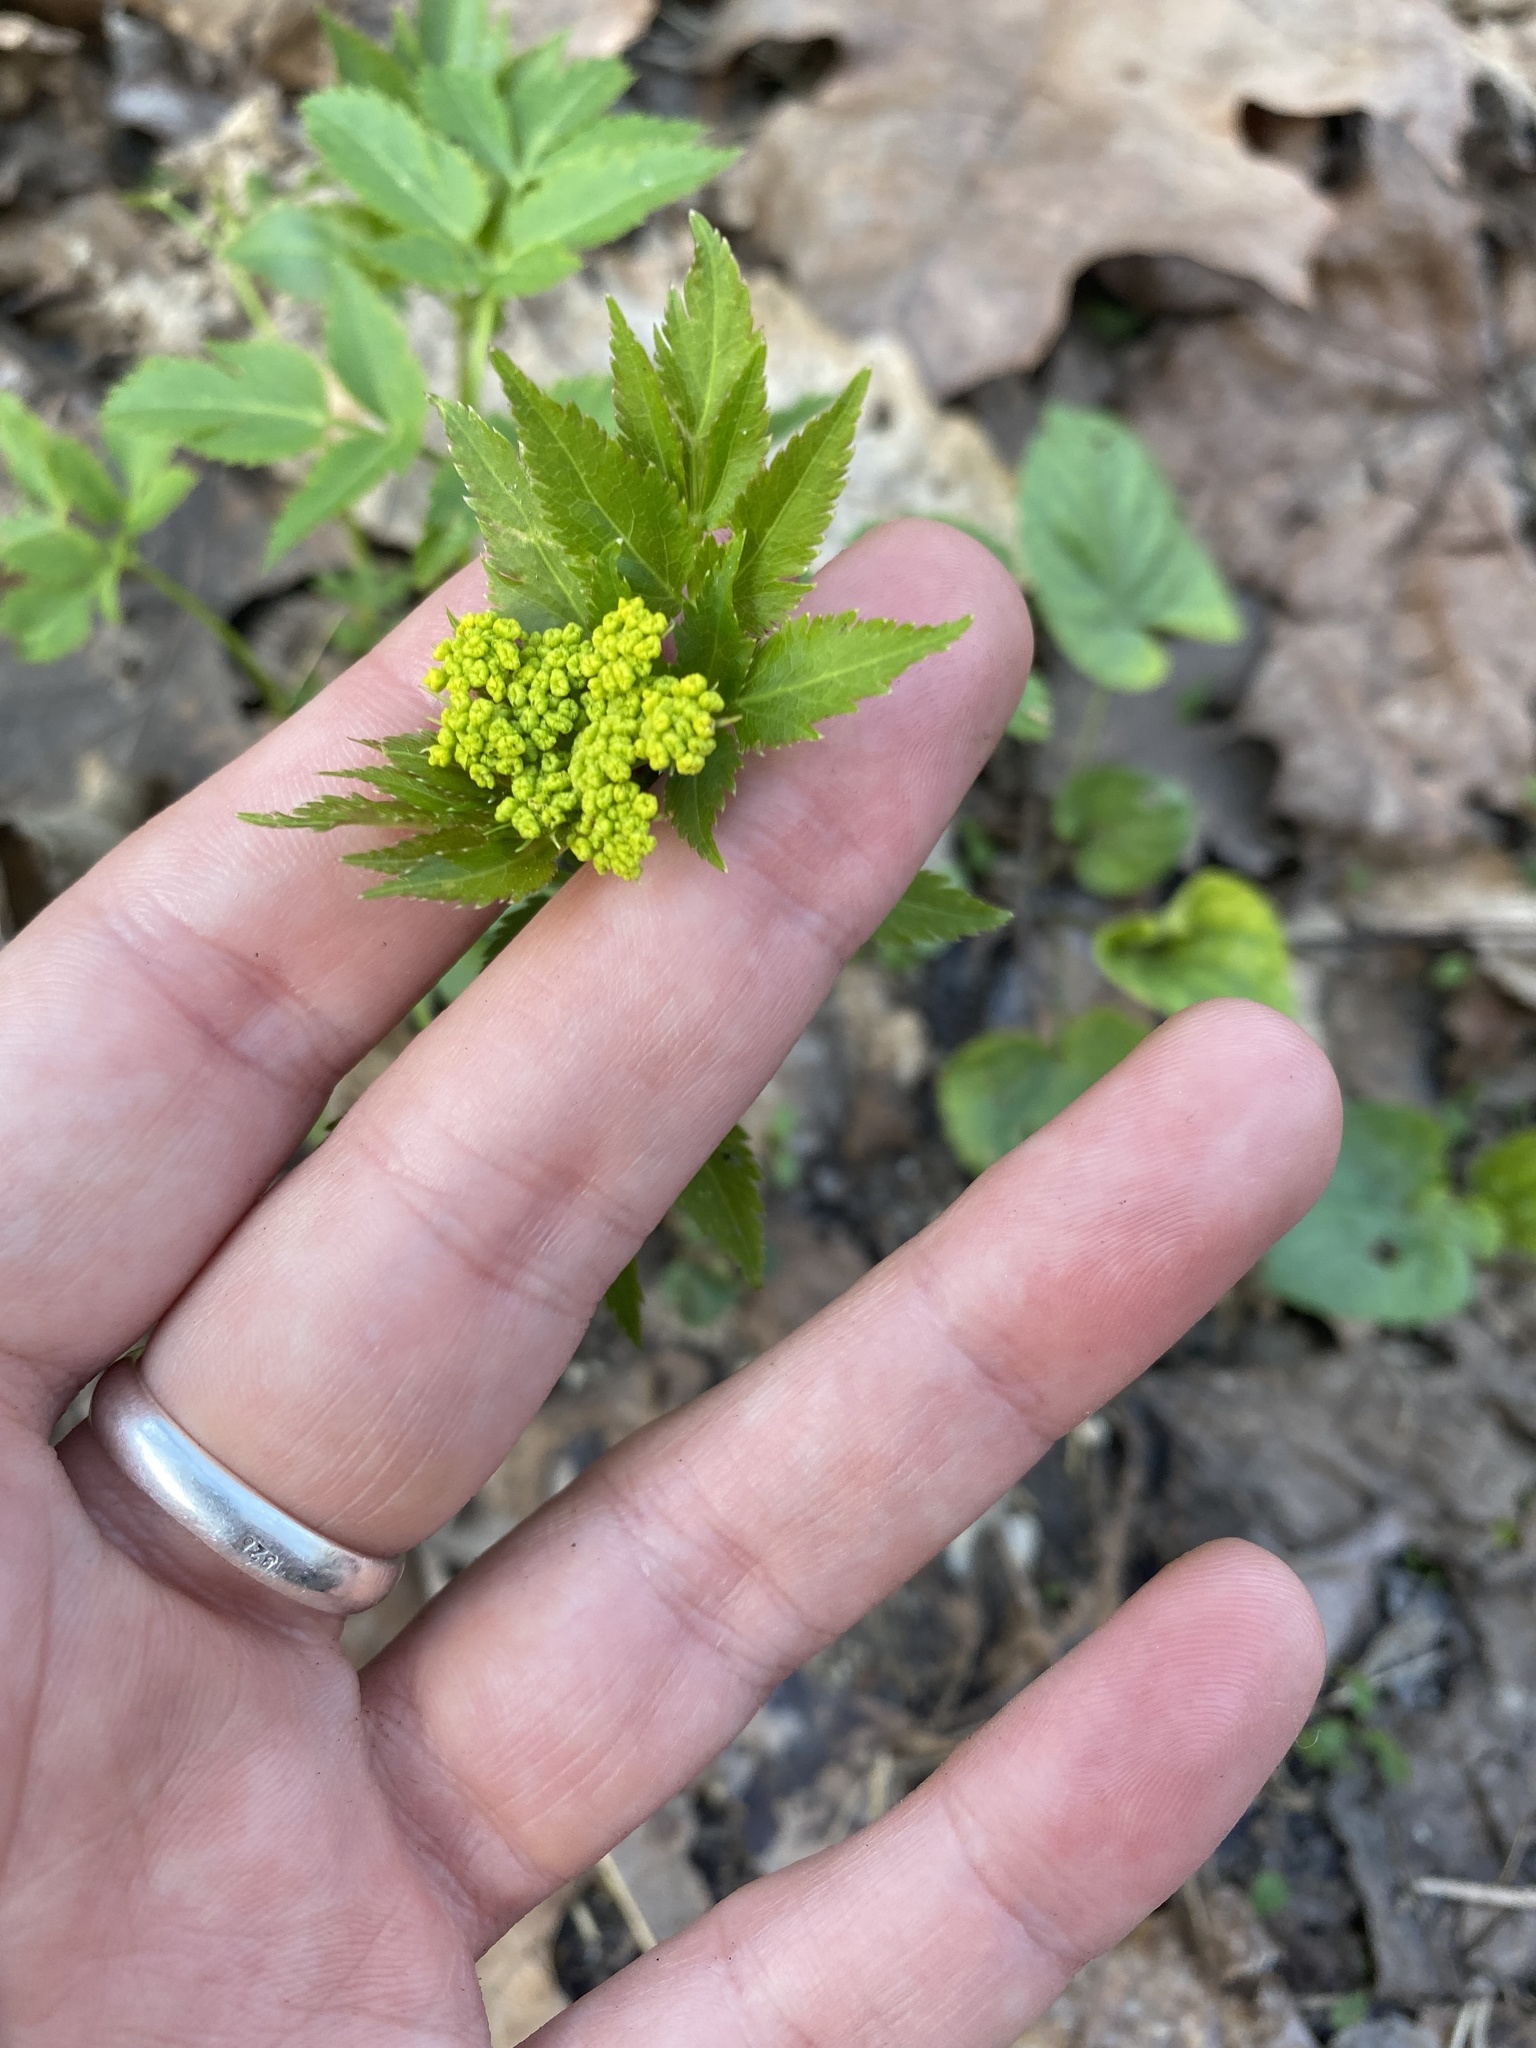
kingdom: Plantae
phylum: Tracheophyta
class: Magnoliopsida
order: Apiales
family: Apiaceae
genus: Zizia
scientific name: Zizia aurea
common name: Golden alexanders
